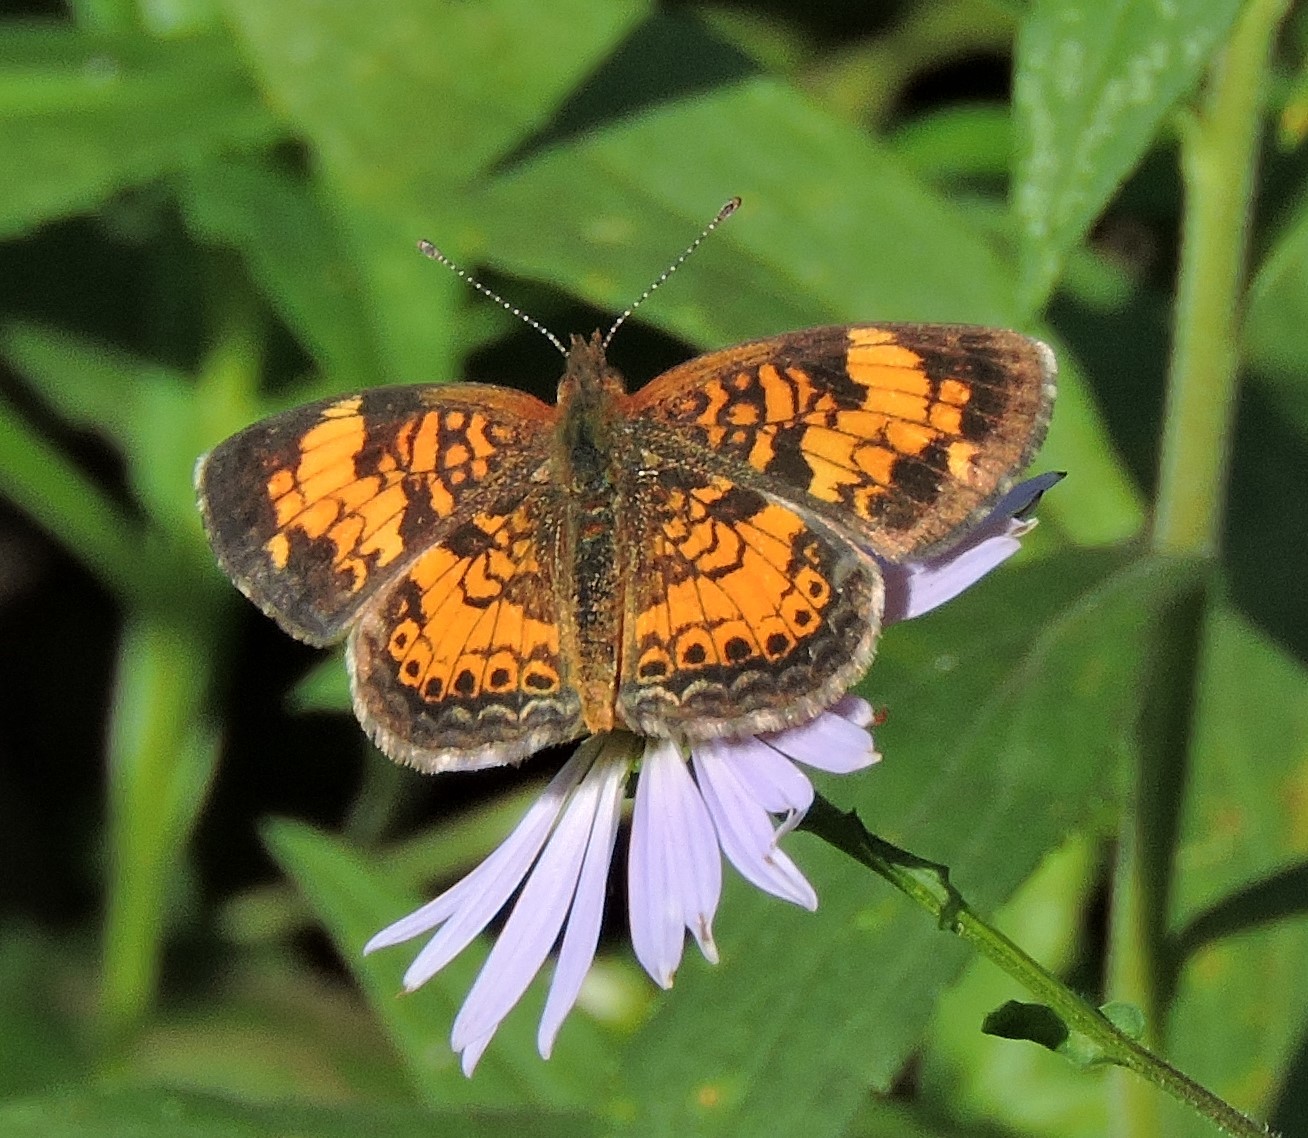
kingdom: Animalia
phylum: Arthropoda
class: Insecta
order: Lepidoptera
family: Nymphalidae
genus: Phyciodes
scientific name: Phyciodes tharos
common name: Pearl crescent
